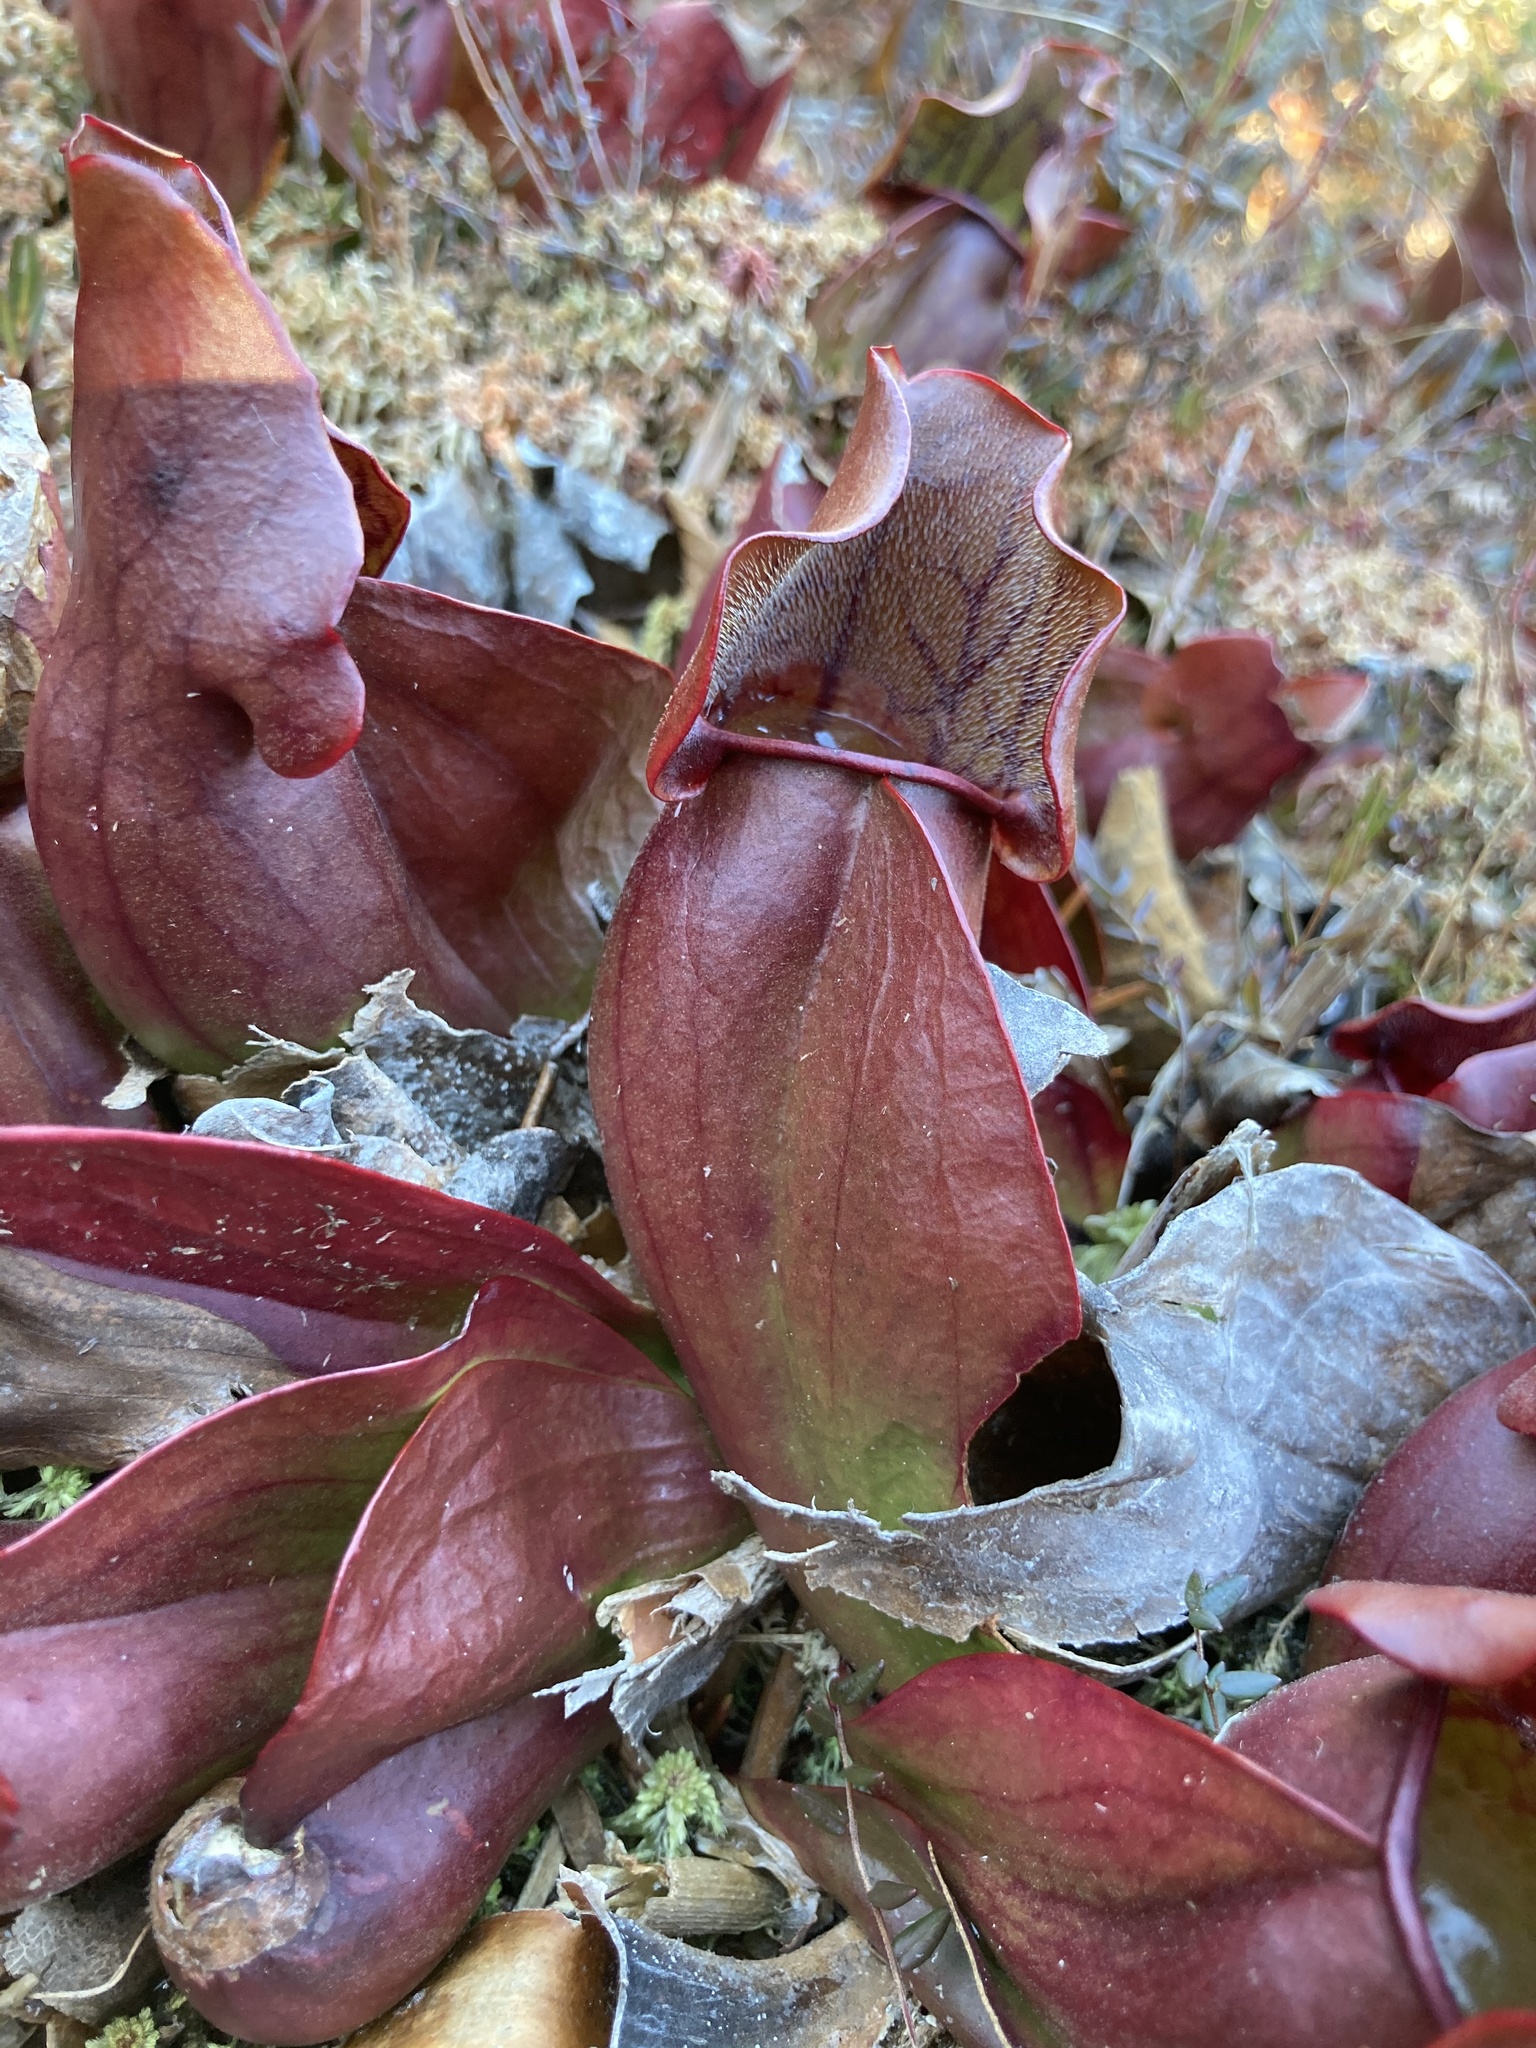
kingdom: Plantae
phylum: Tracheophyta
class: Magnoliopsida
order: Ericales
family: Sarraceniaceae
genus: Sarracenia
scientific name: Sarracenia purpurea
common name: Pitcherplant
